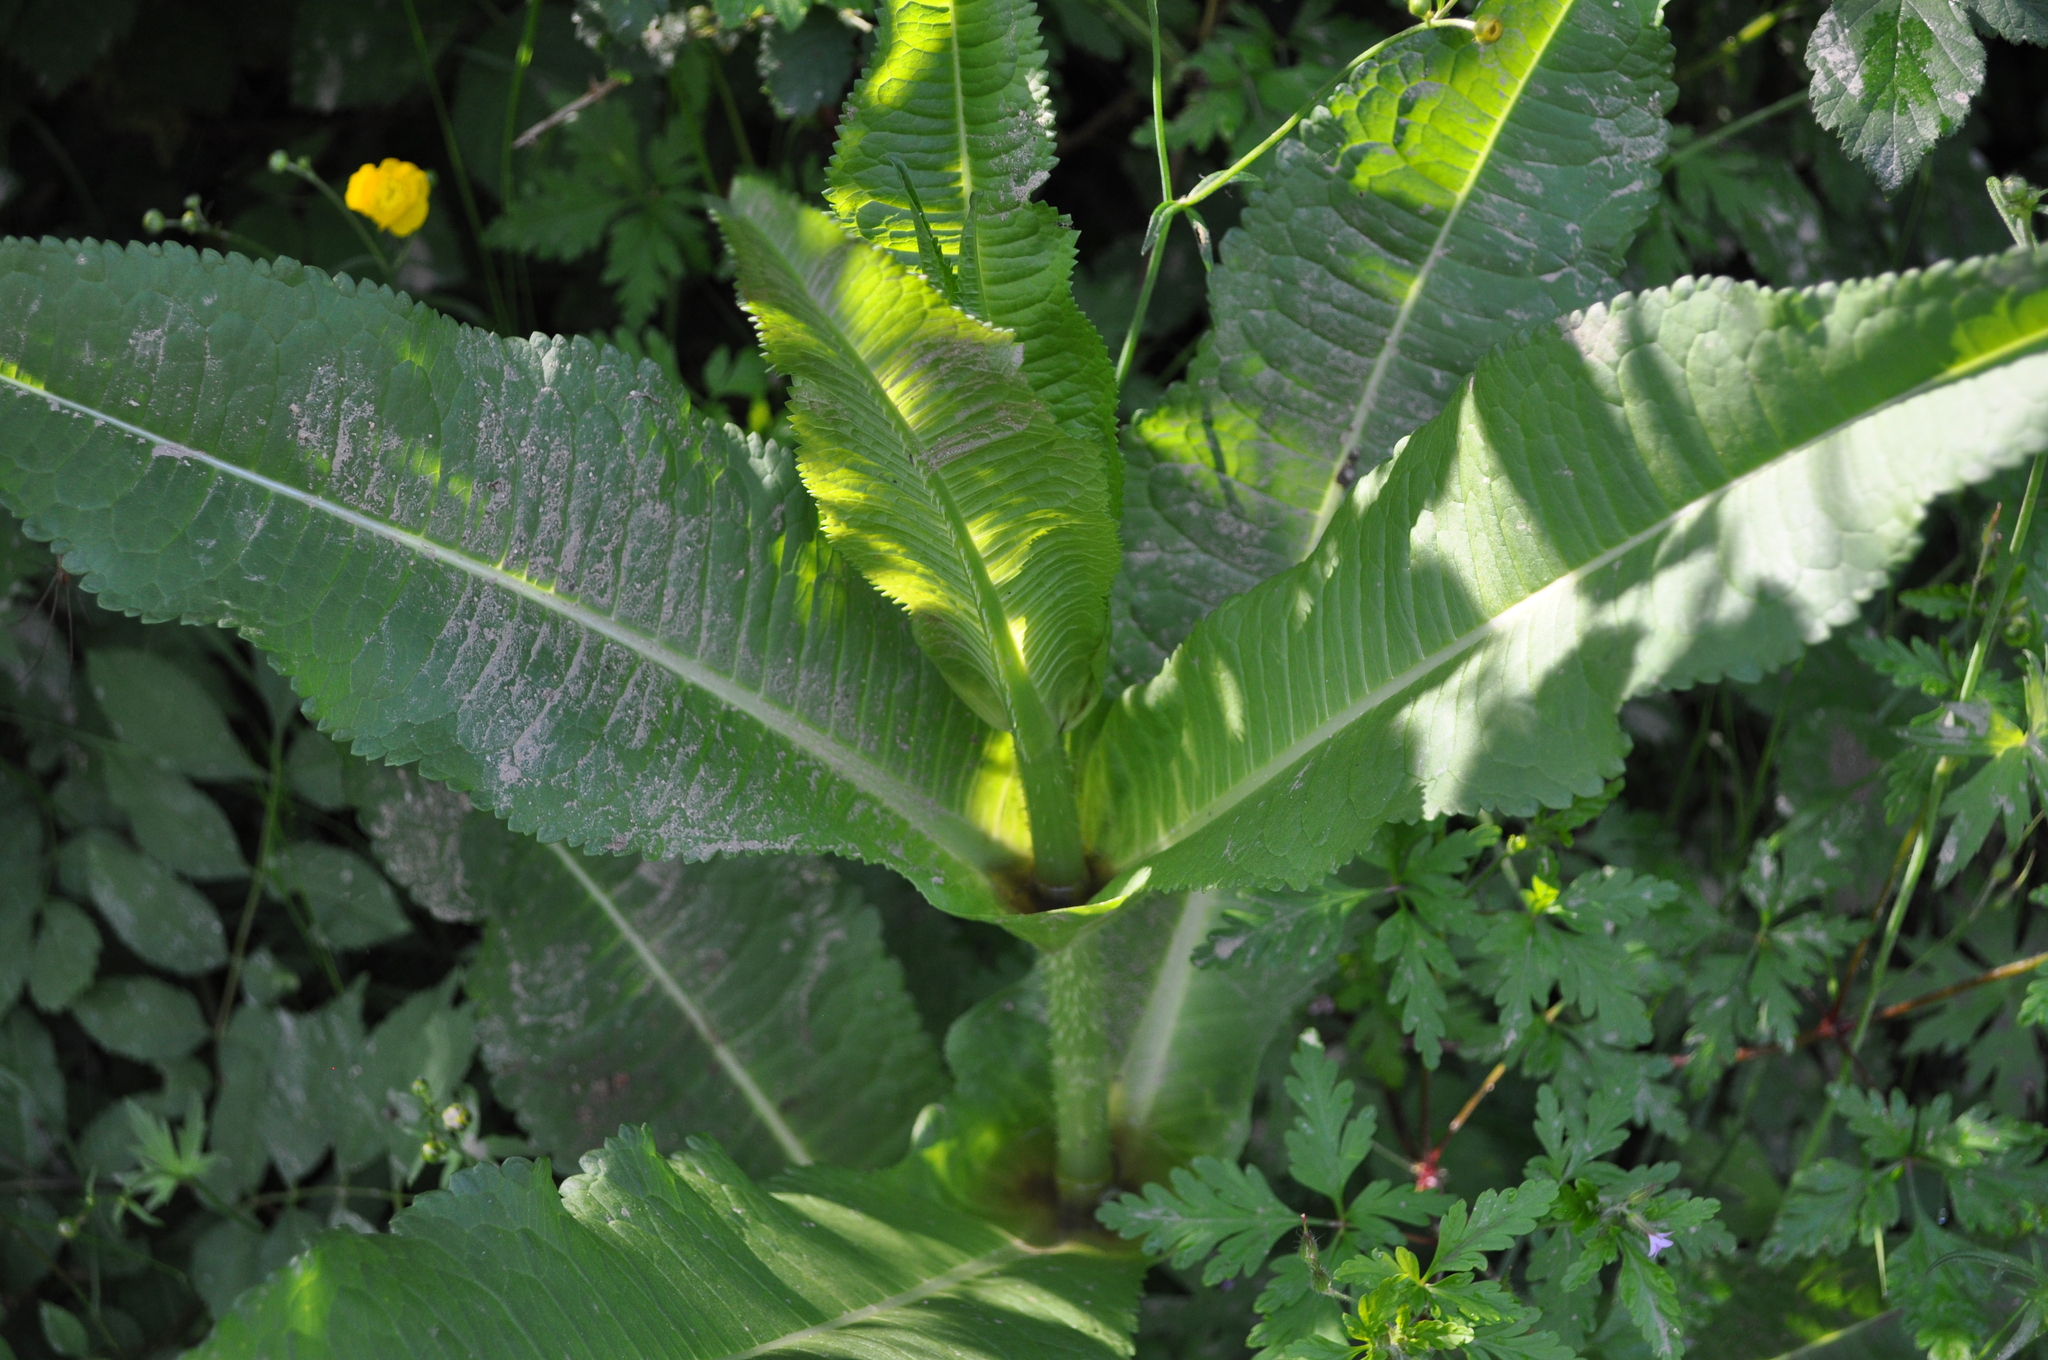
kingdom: Plantae
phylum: Tracheophyta
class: Magnoliopsida
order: Dipsacales
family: Caprifoliaceae
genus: Dipsacus
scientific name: Dipsacus fullonum
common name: Teasel
